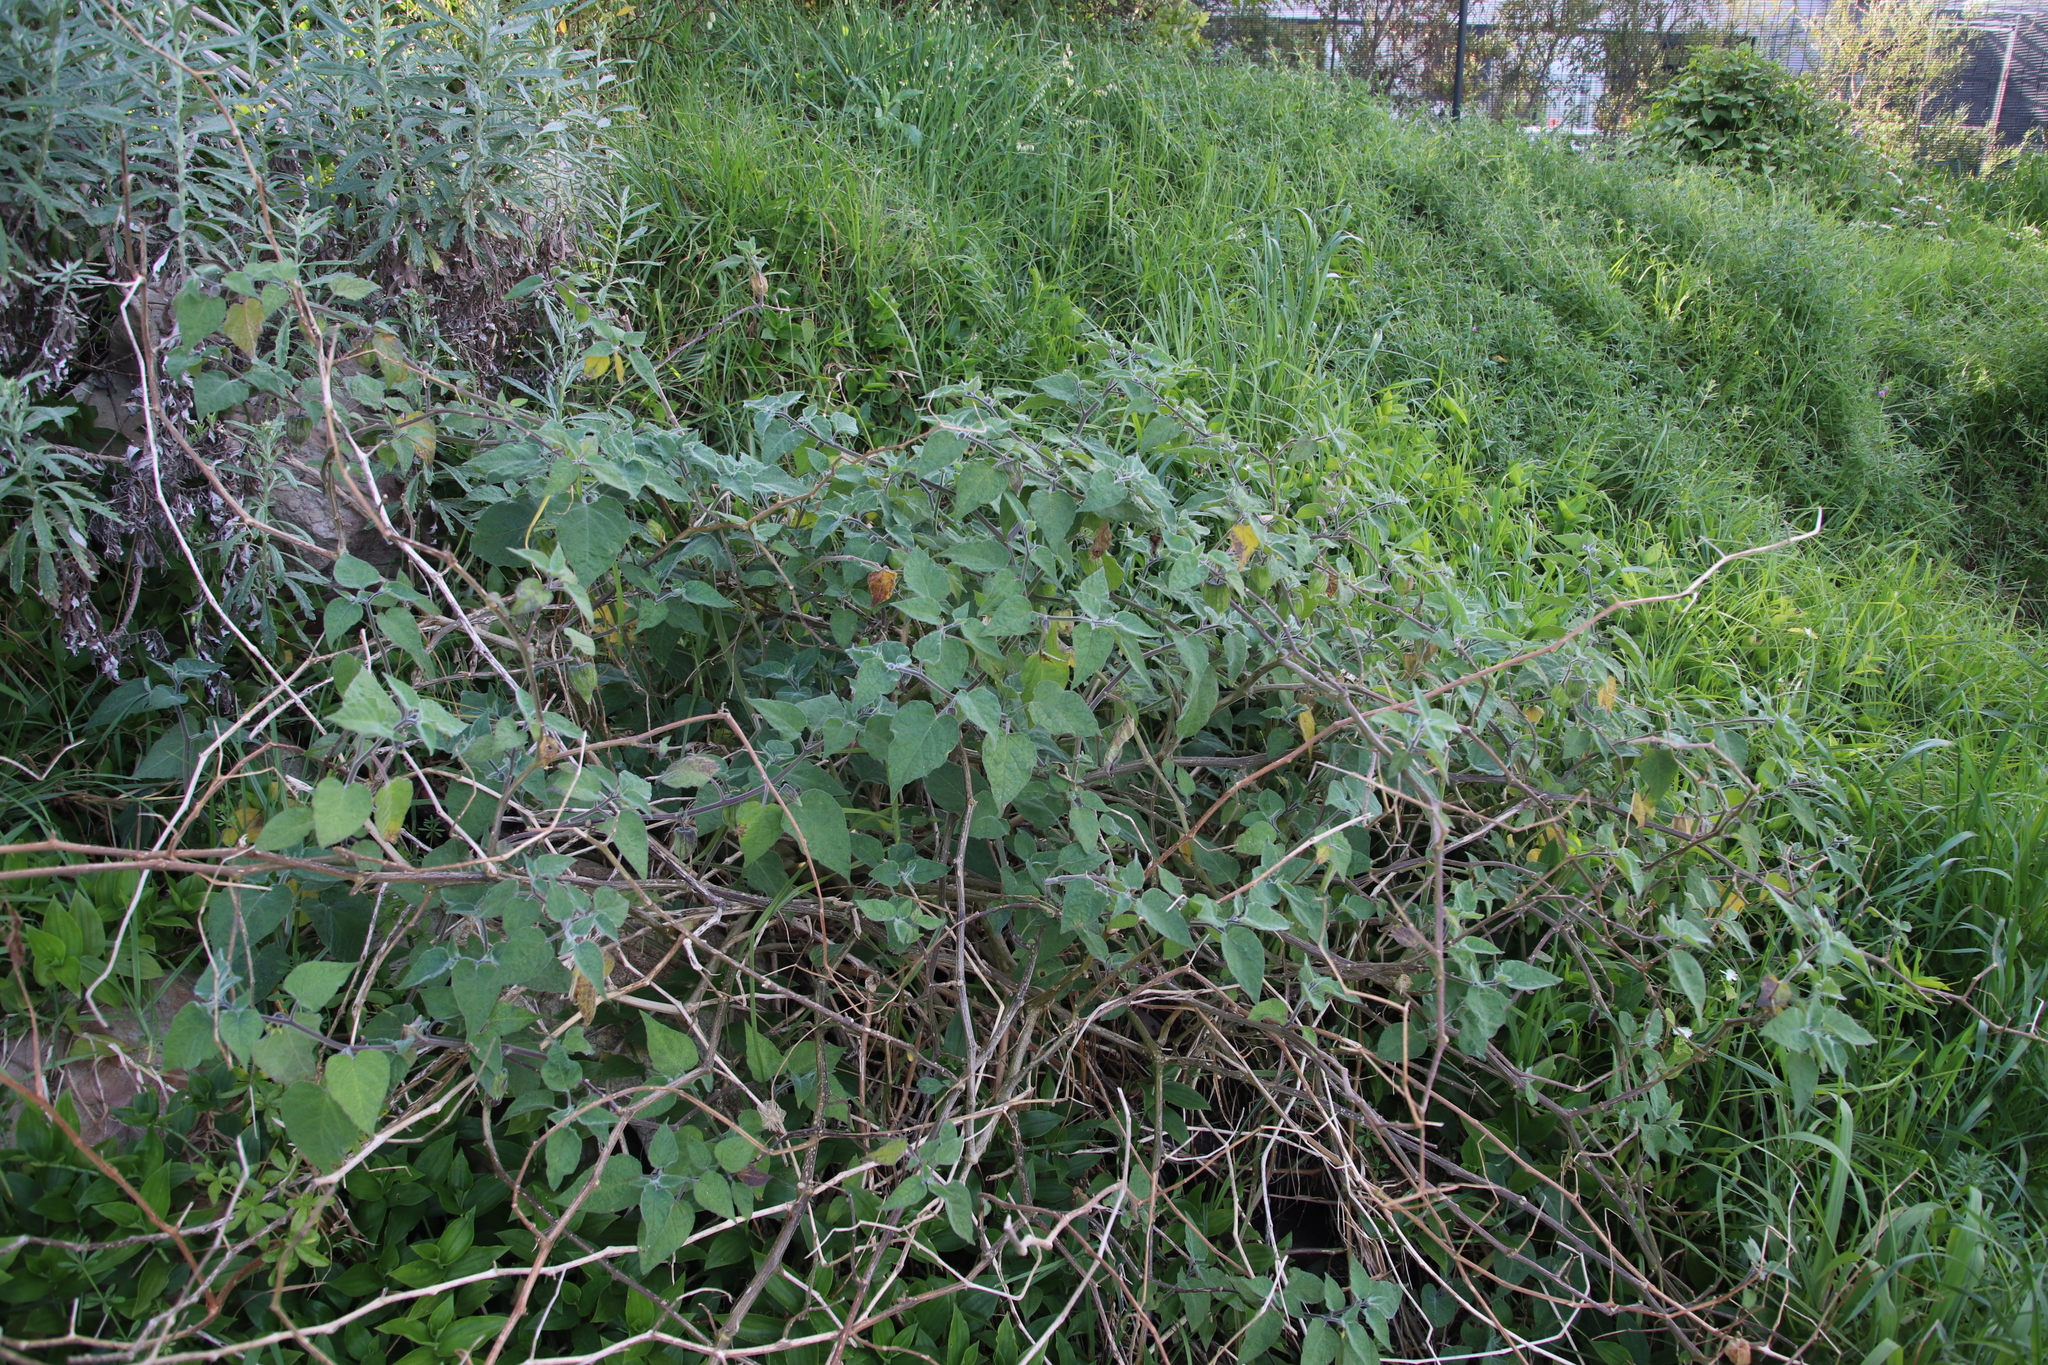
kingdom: Plantae
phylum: Tracheophyta
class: Magnoliopsida
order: Solanales
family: Solanaceae
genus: Physalis
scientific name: Physalis peruviana
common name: Cape-gooseberry
